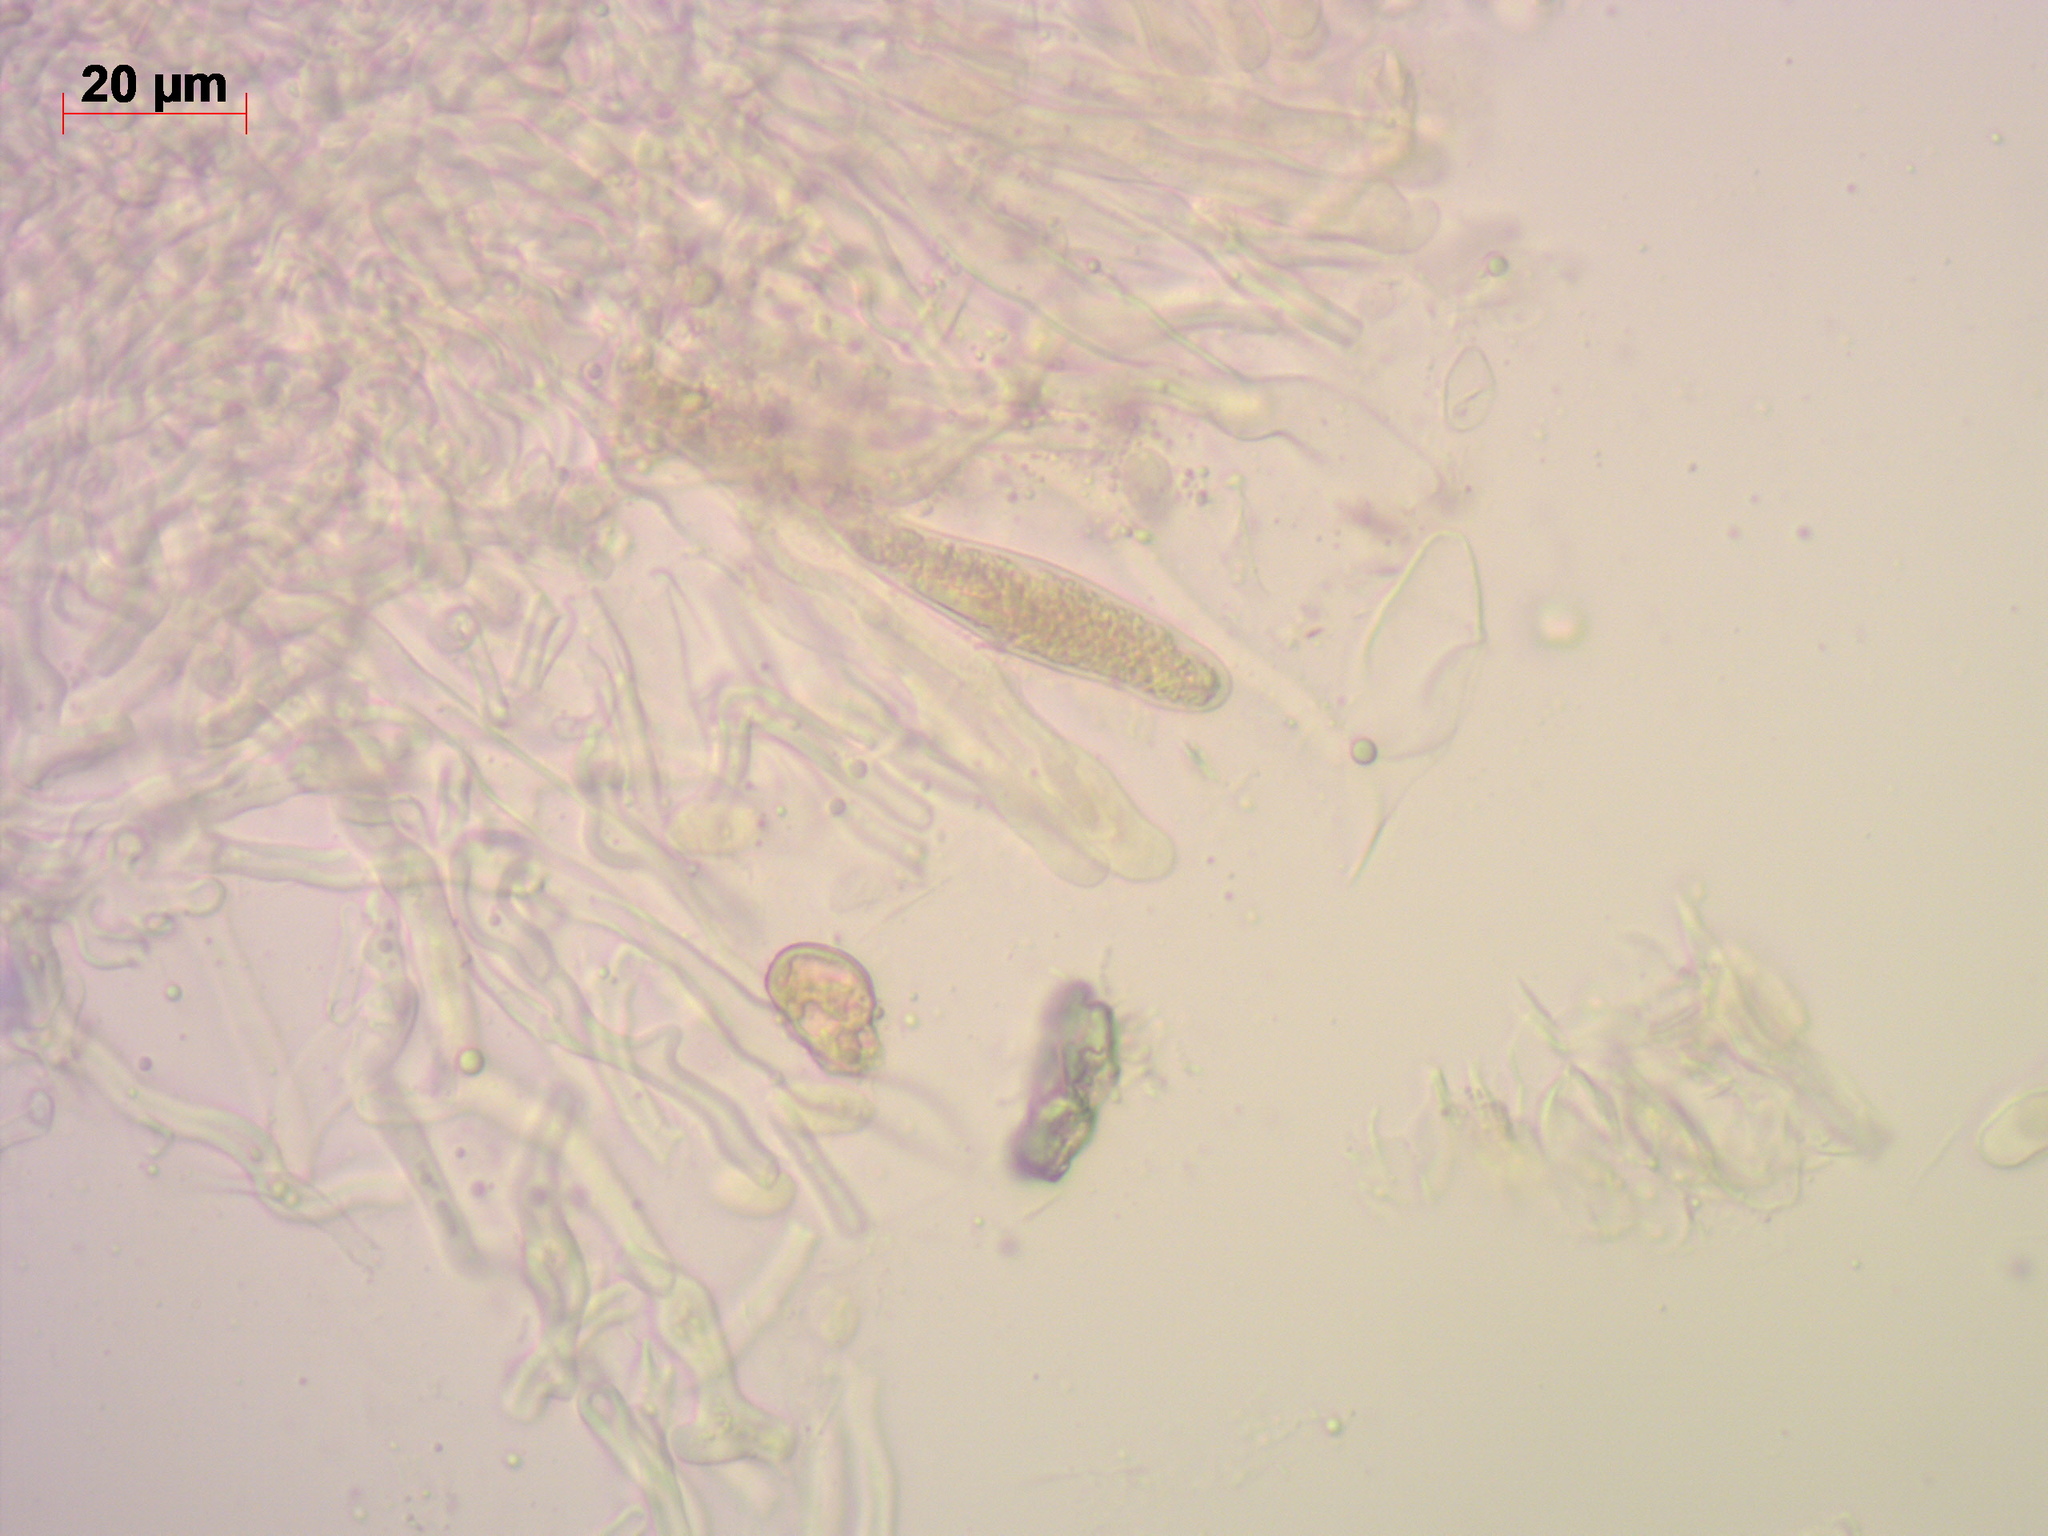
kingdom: Fungi
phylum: Basidiomycota
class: Agaricomycetes
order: Russulales
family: Peniophoraceae
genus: Peniophora
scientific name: Peniophora laurentii
